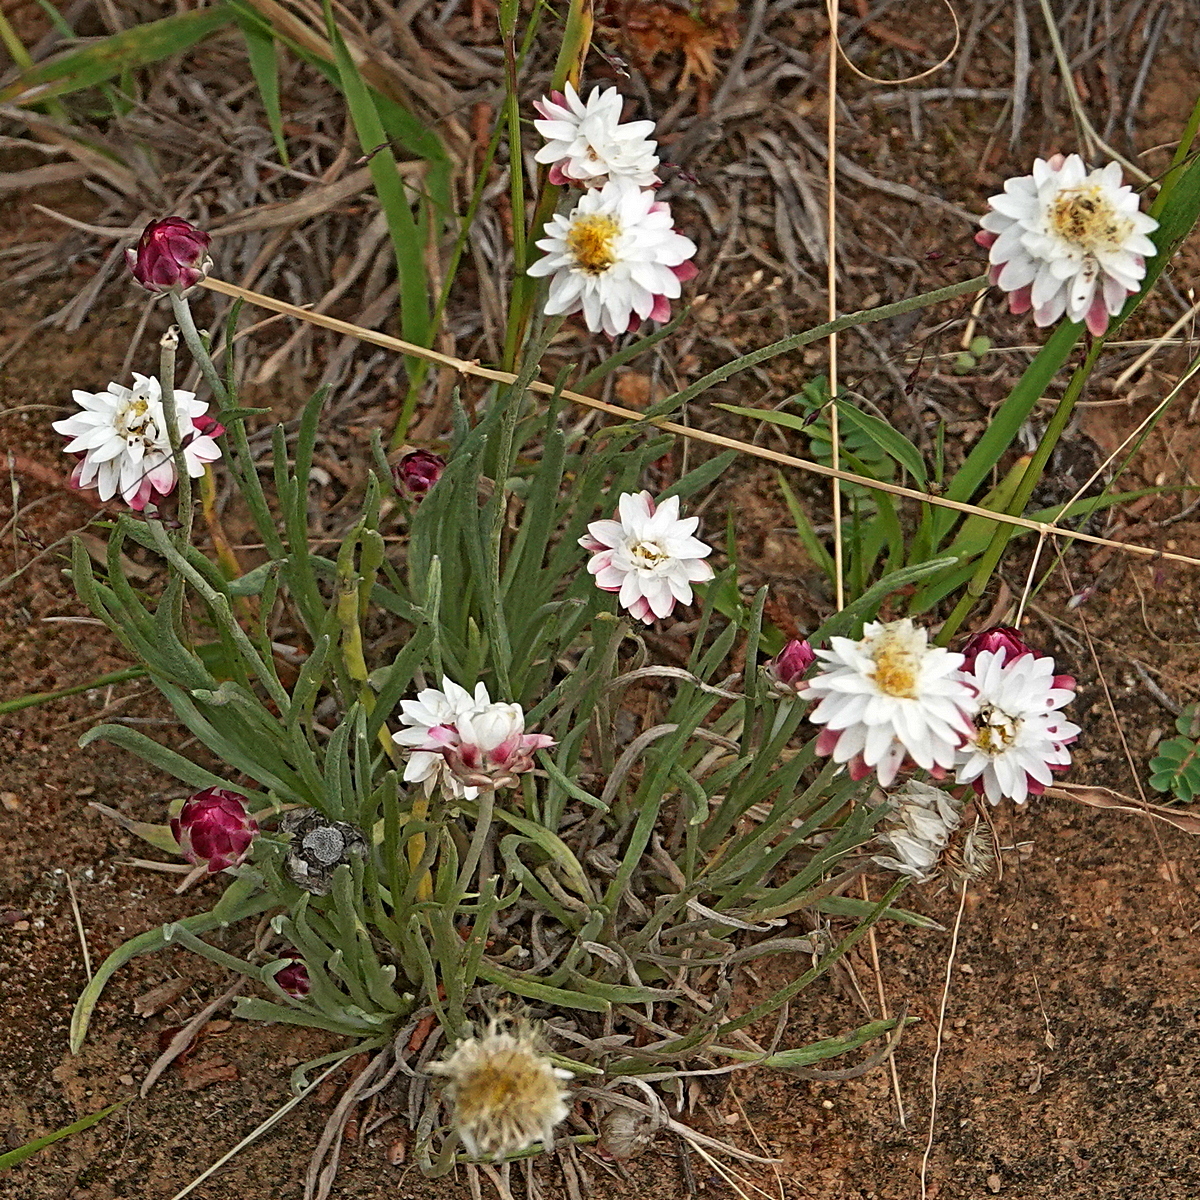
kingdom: Plantae
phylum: Tracheophyta
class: Magnoliopsida
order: Asterales
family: Asteraceae
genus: Leucochrysum
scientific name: Leucochrysum albicans
